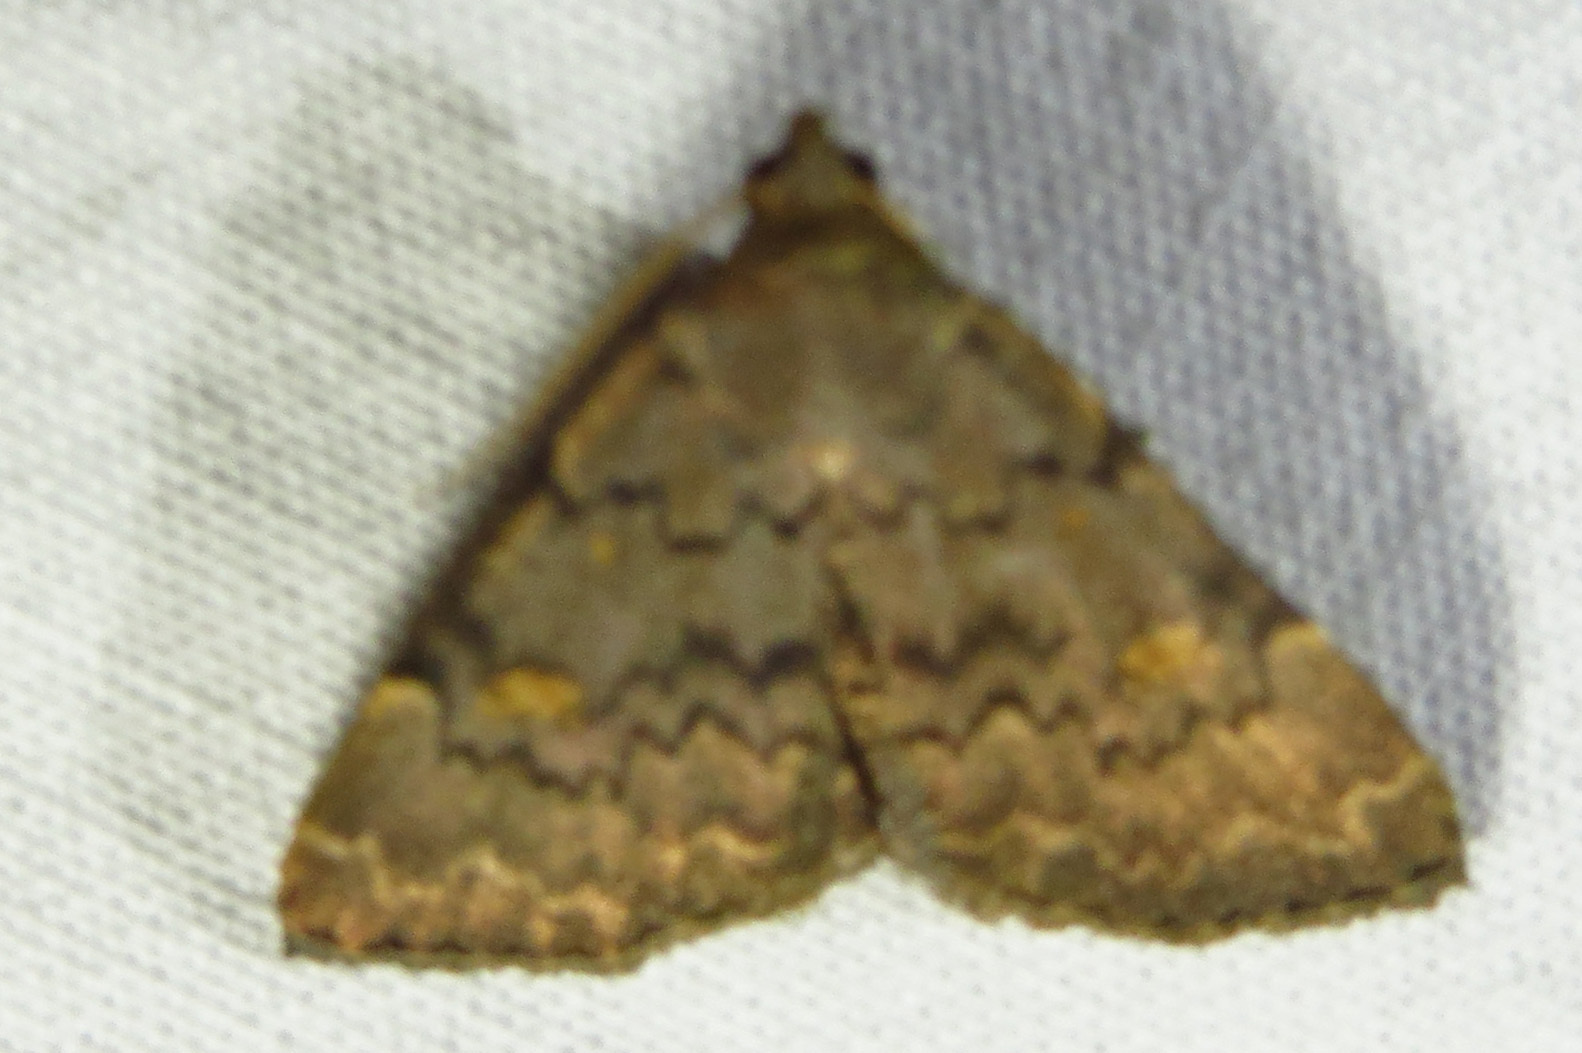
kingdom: Animalia
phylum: Arthropoda
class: Insecta
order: Lepidoptera
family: Erebidae
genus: Idia
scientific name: Idia aemula
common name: Common idia moth
